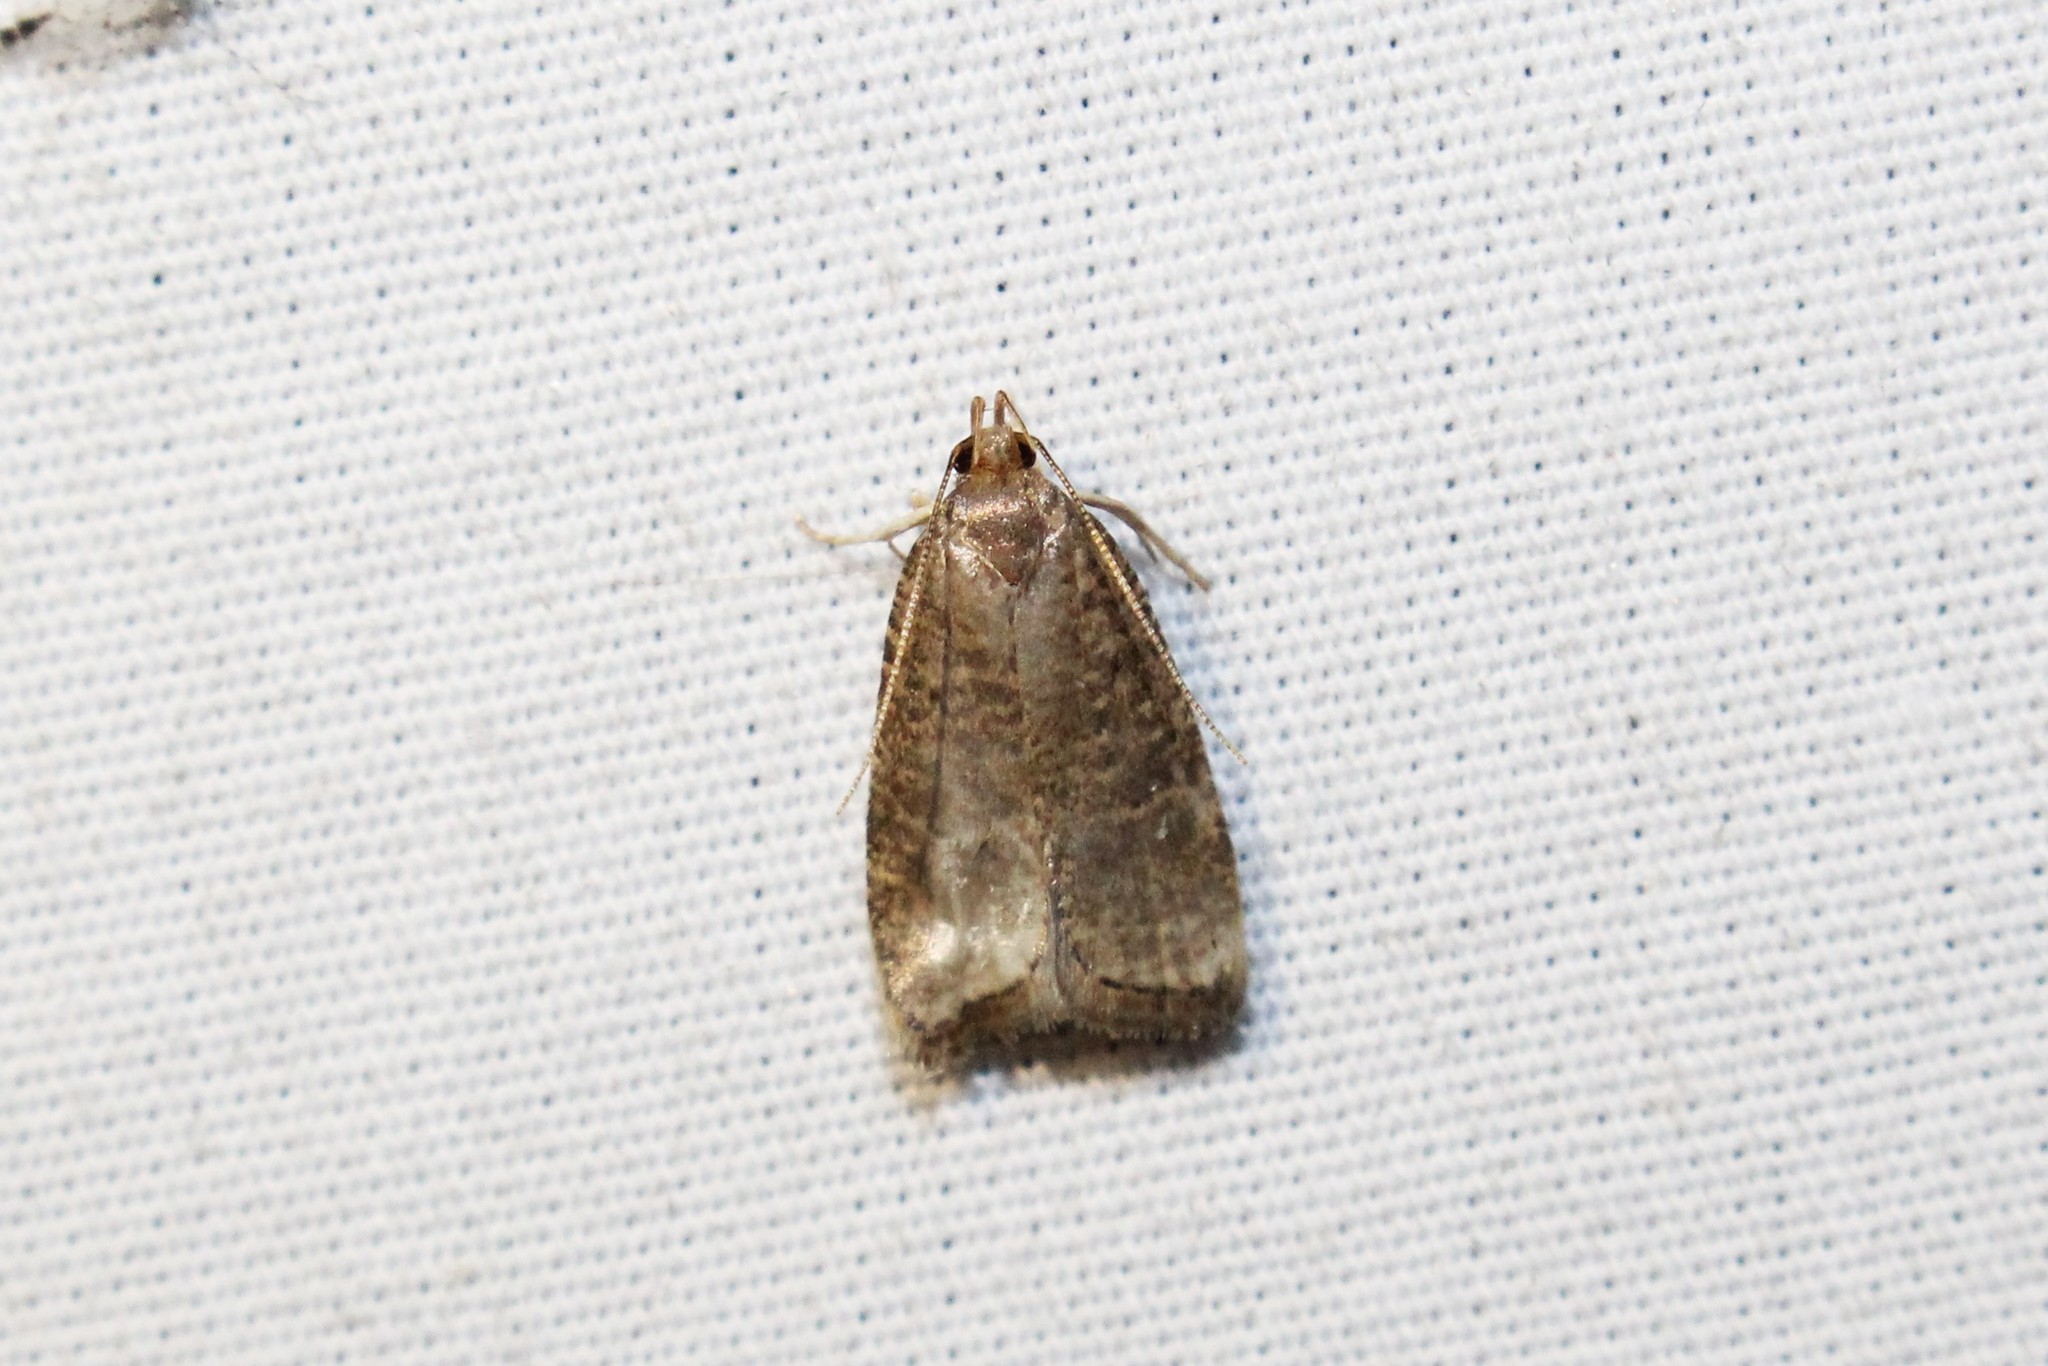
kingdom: Animalia
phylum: Arthropoda
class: Insecta
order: Lepidoptera
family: Depressariidae
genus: Psilocorsis
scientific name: Psilocorsis reflexella
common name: Dotted leaftier moth
